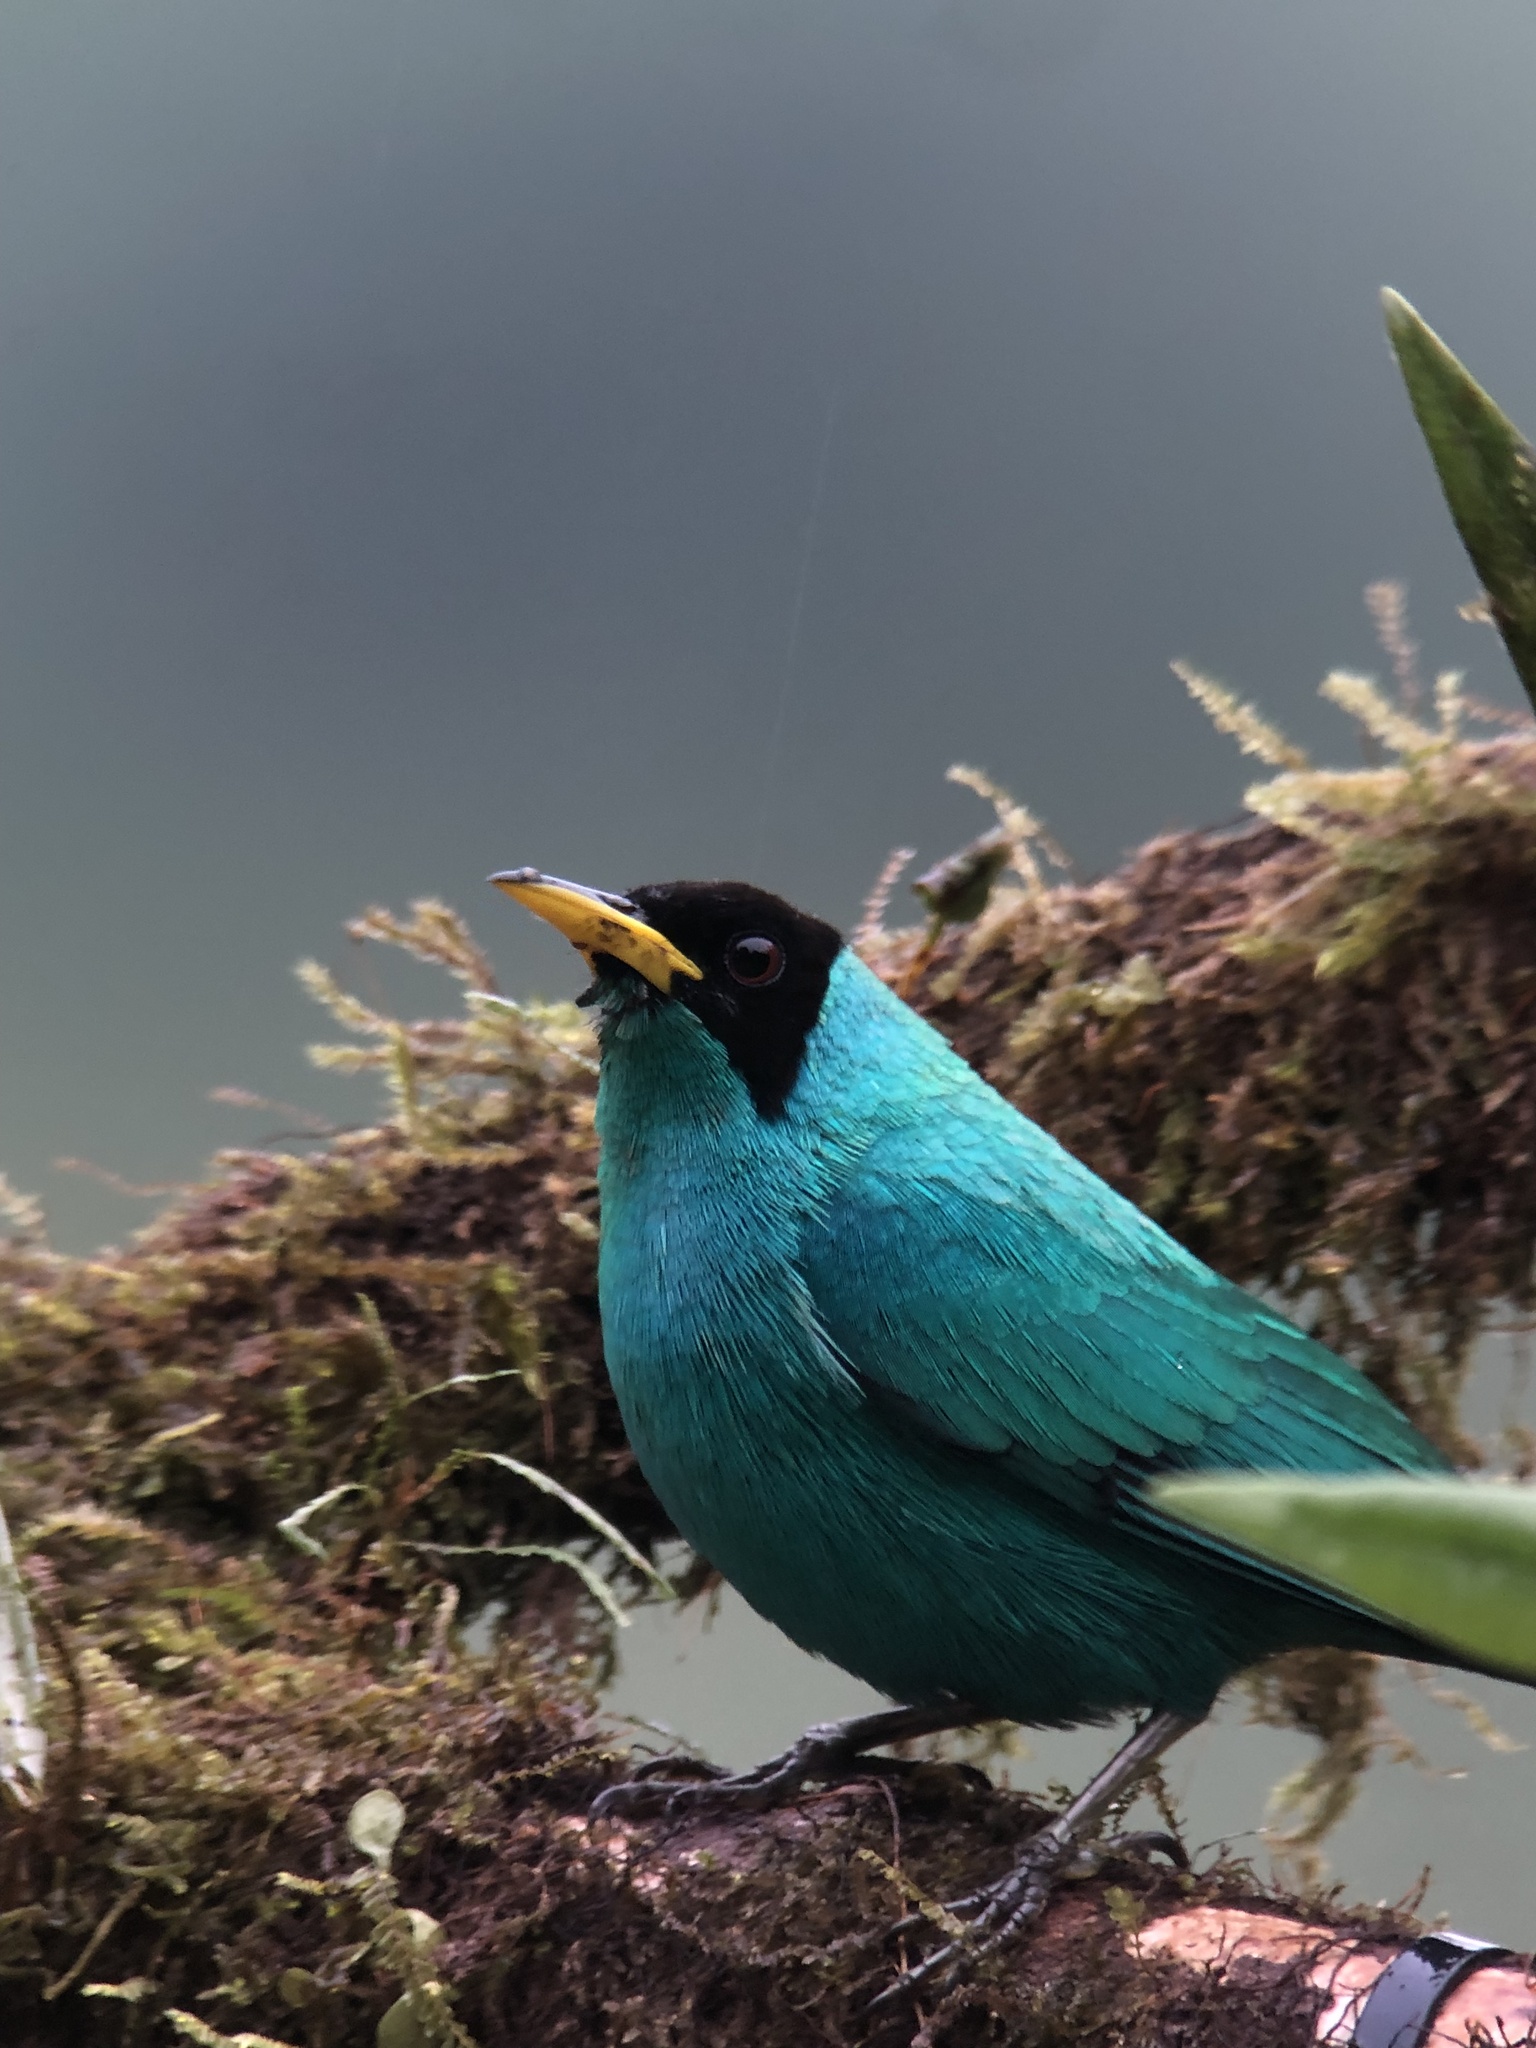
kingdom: Animalia
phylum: Chordata
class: Aves
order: Passeriformes
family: Thraupidae
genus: Chlorophanes
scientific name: Chlorophanes spiza
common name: Green honeycreeper
